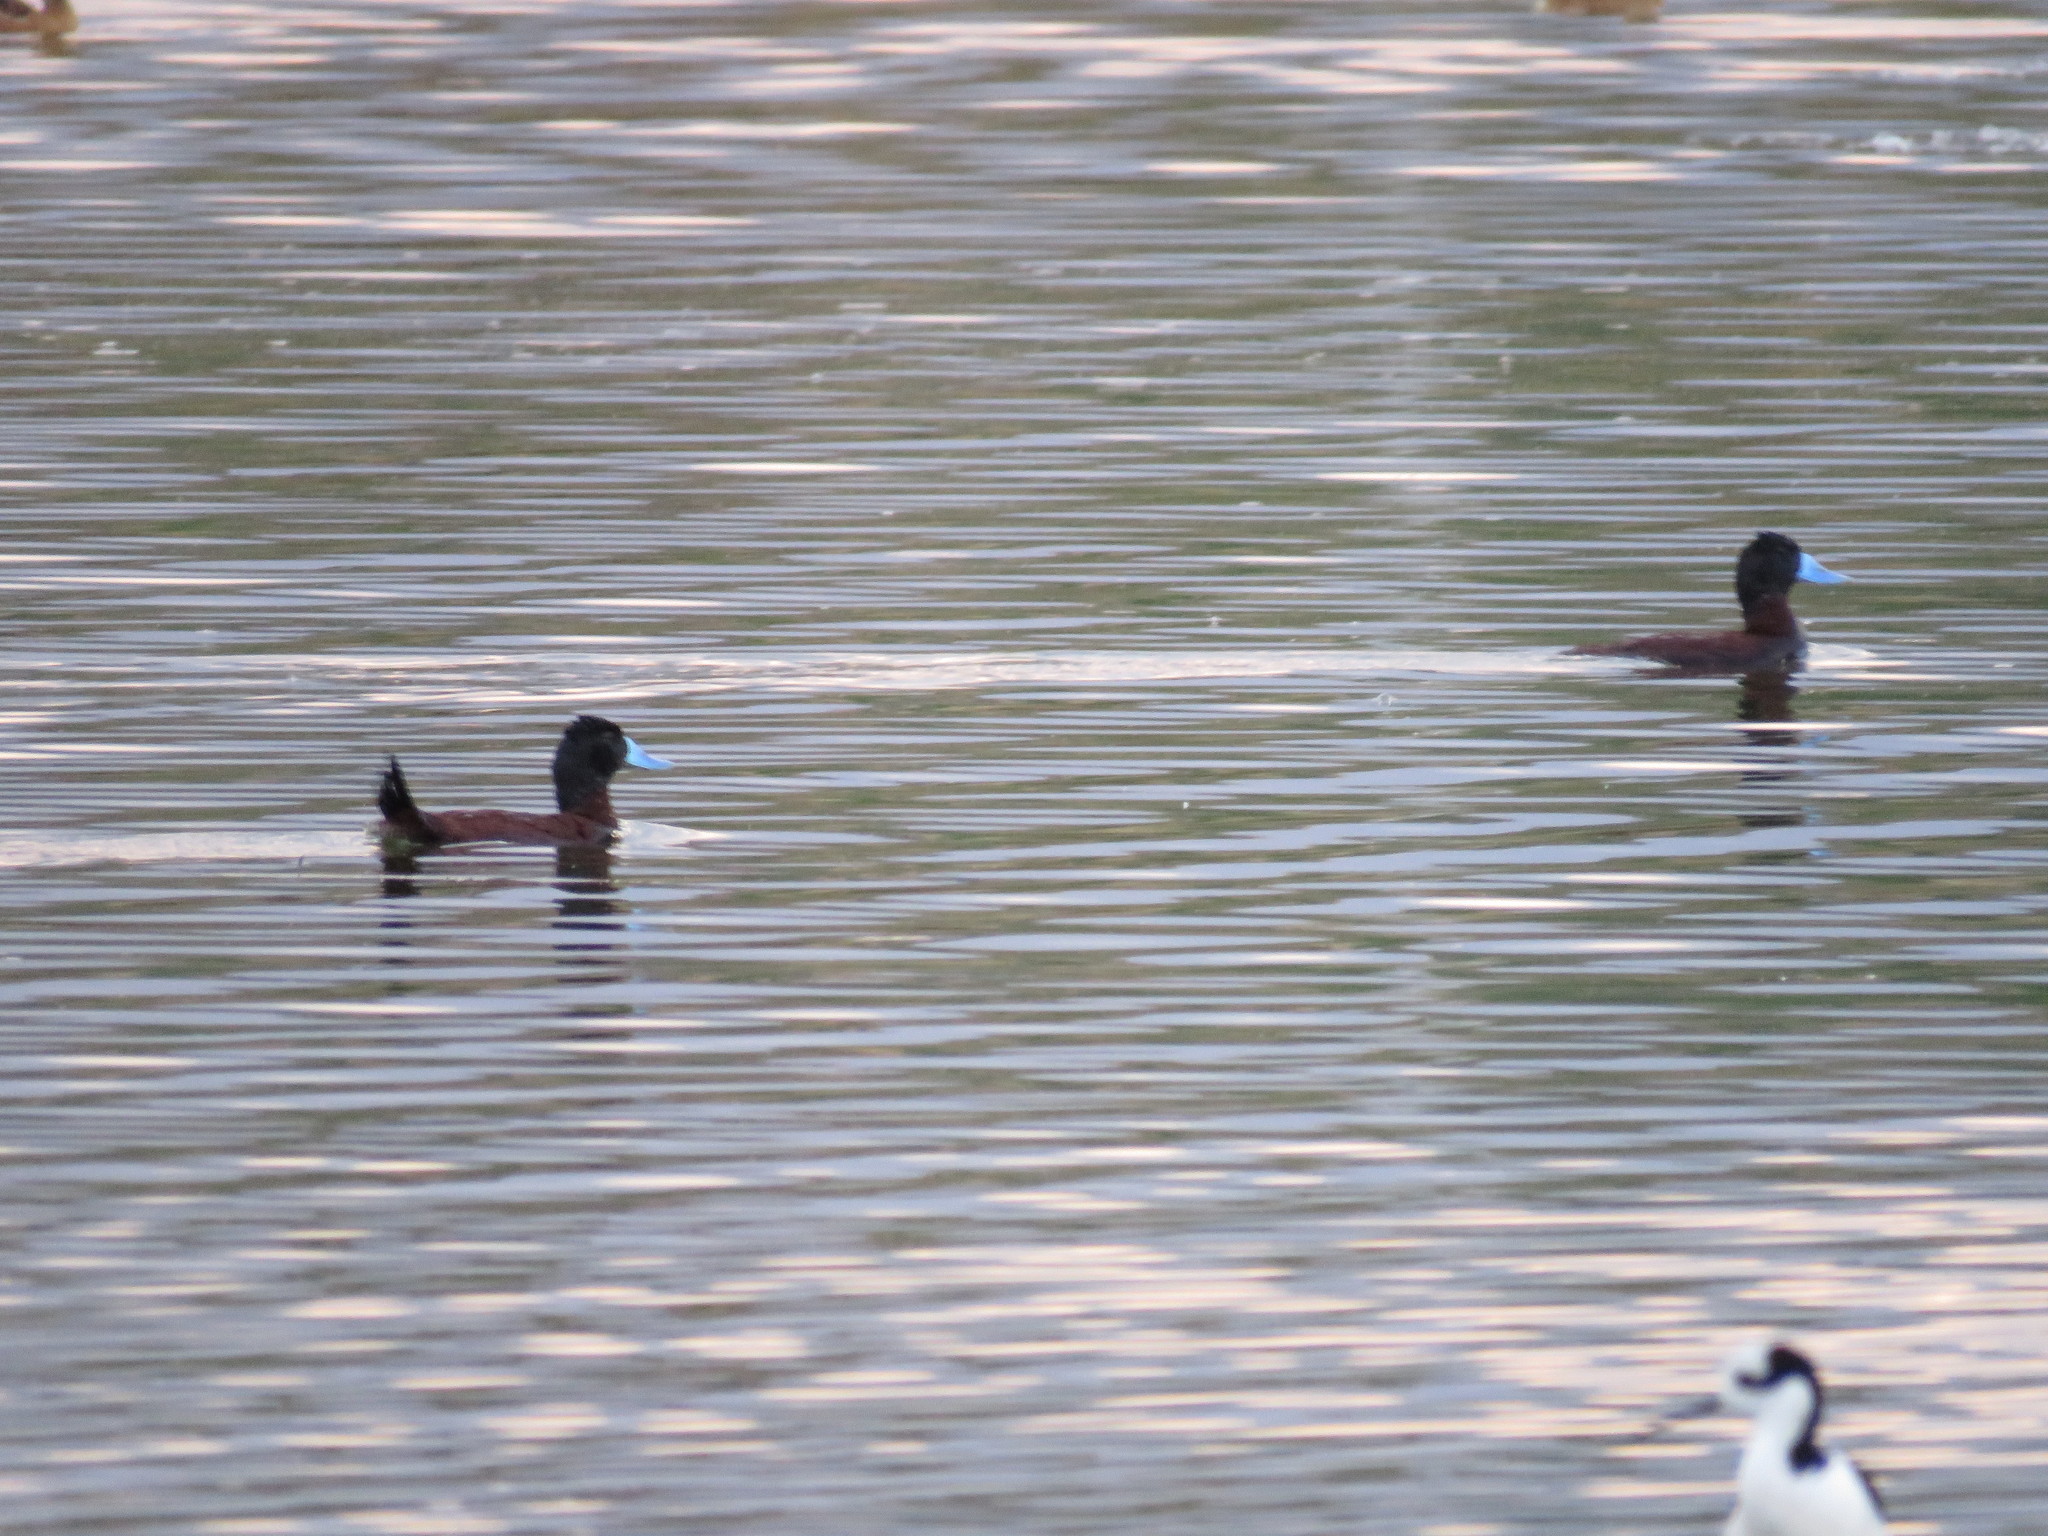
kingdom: Animalia
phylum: Chordata
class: Aves
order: Anseriformes
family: Anatidae
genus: Oxyura
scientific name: Oxyura ferruginea
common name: Andean duck
